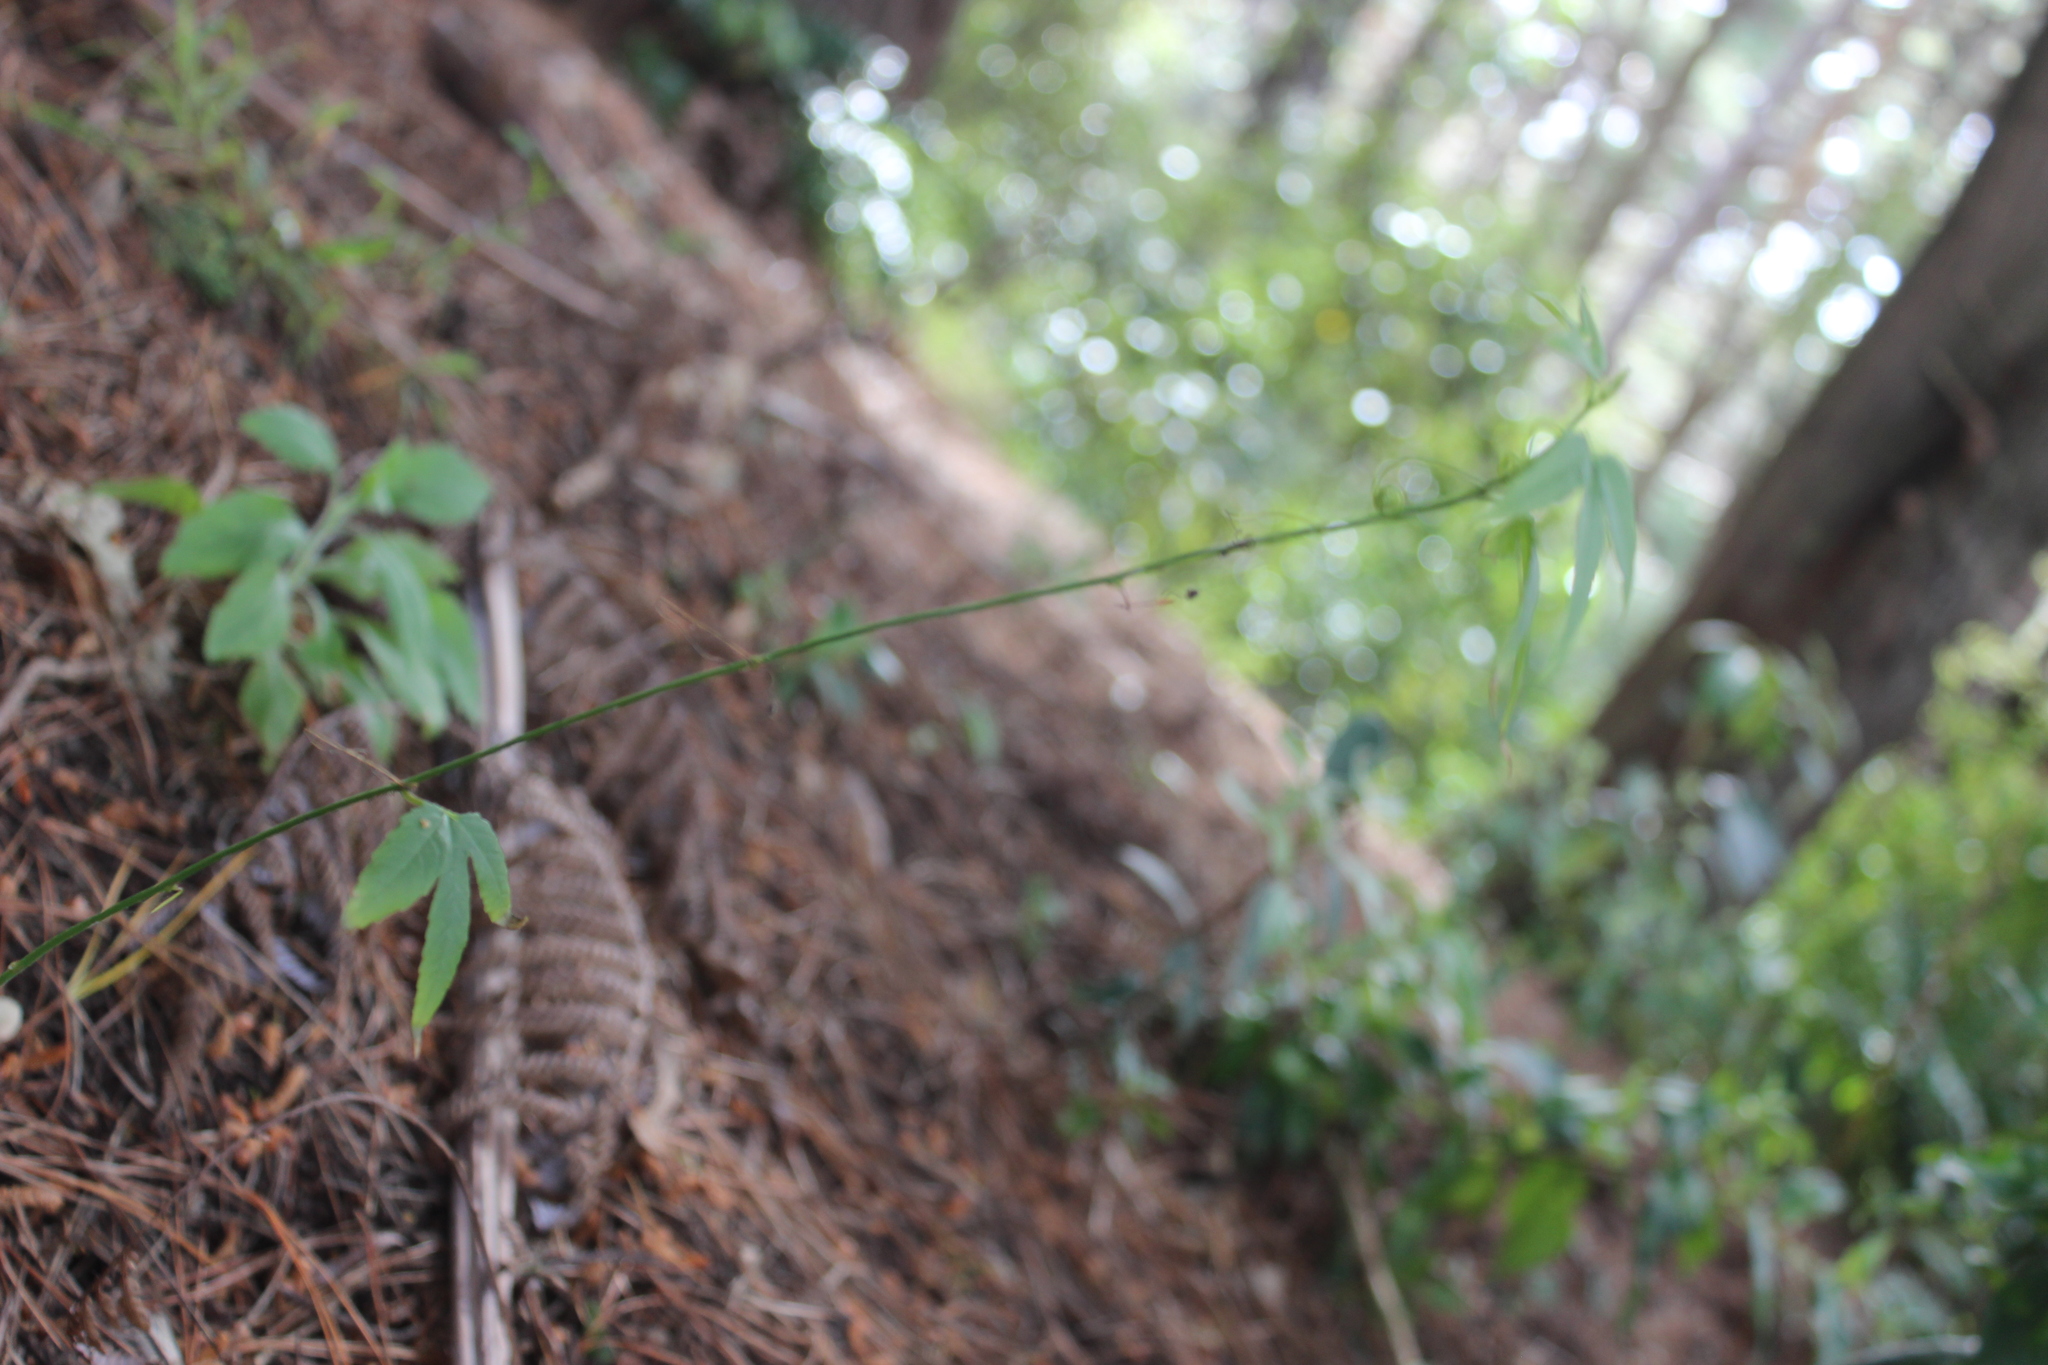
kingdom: Plantae
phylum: Tracheophyta
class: Magnoliopsida
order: Malpighiales
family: Passifloraceae
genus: Passiflora
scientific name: Passiflora tripartita
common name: Banana poka
